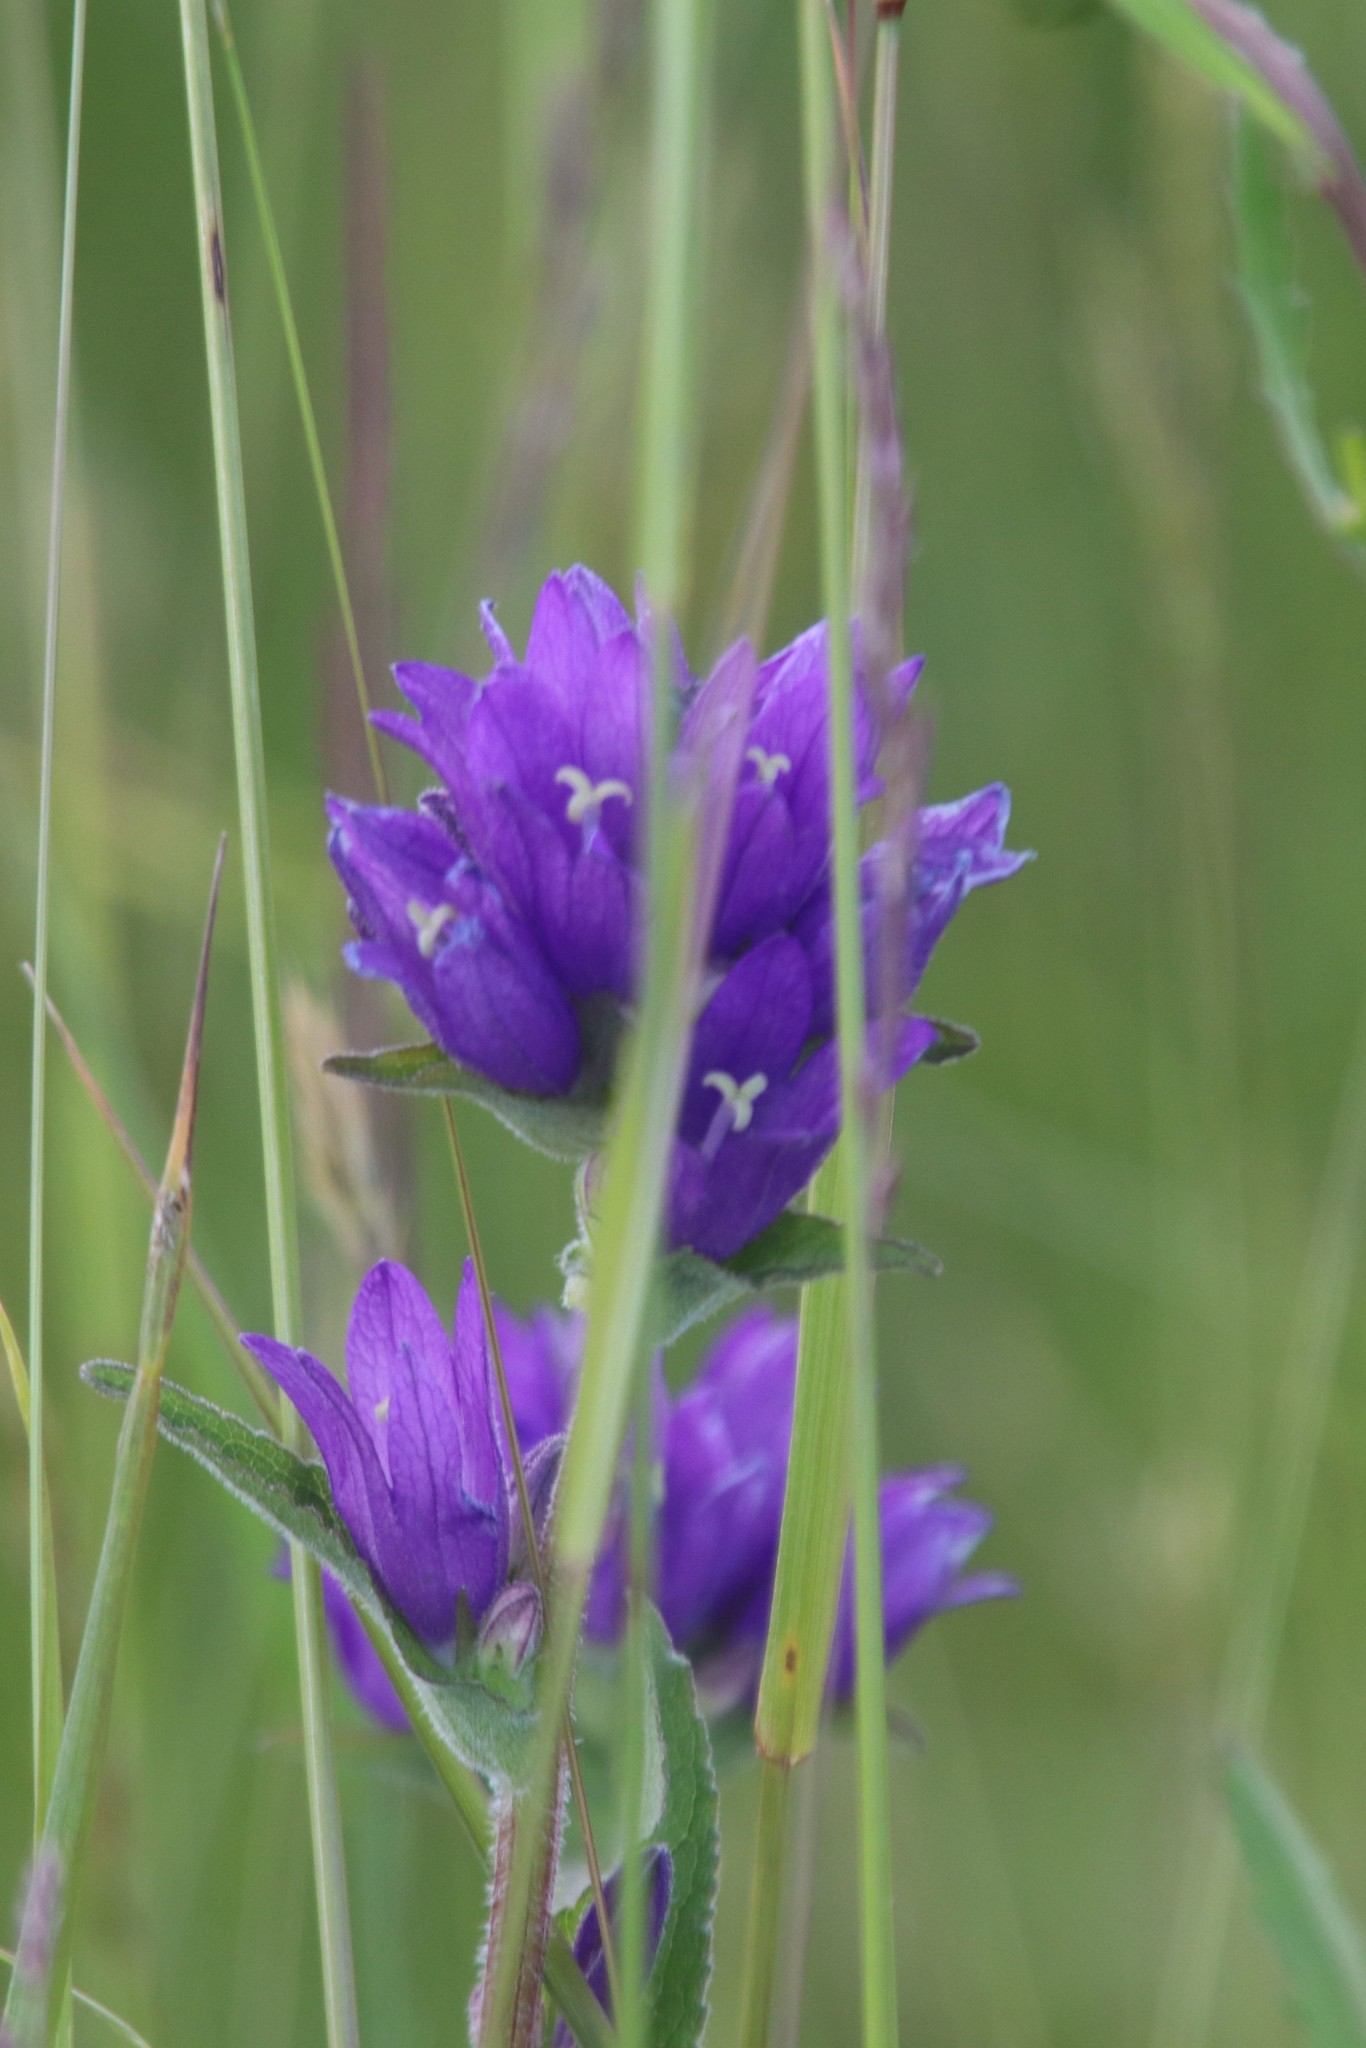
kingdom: Plantae
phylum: Tracheophyta
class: Magnoliopsida
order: Asterales
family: Campanulaceae
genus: Campanula
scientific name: Campanula glomerata
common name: Clustered bellflower
